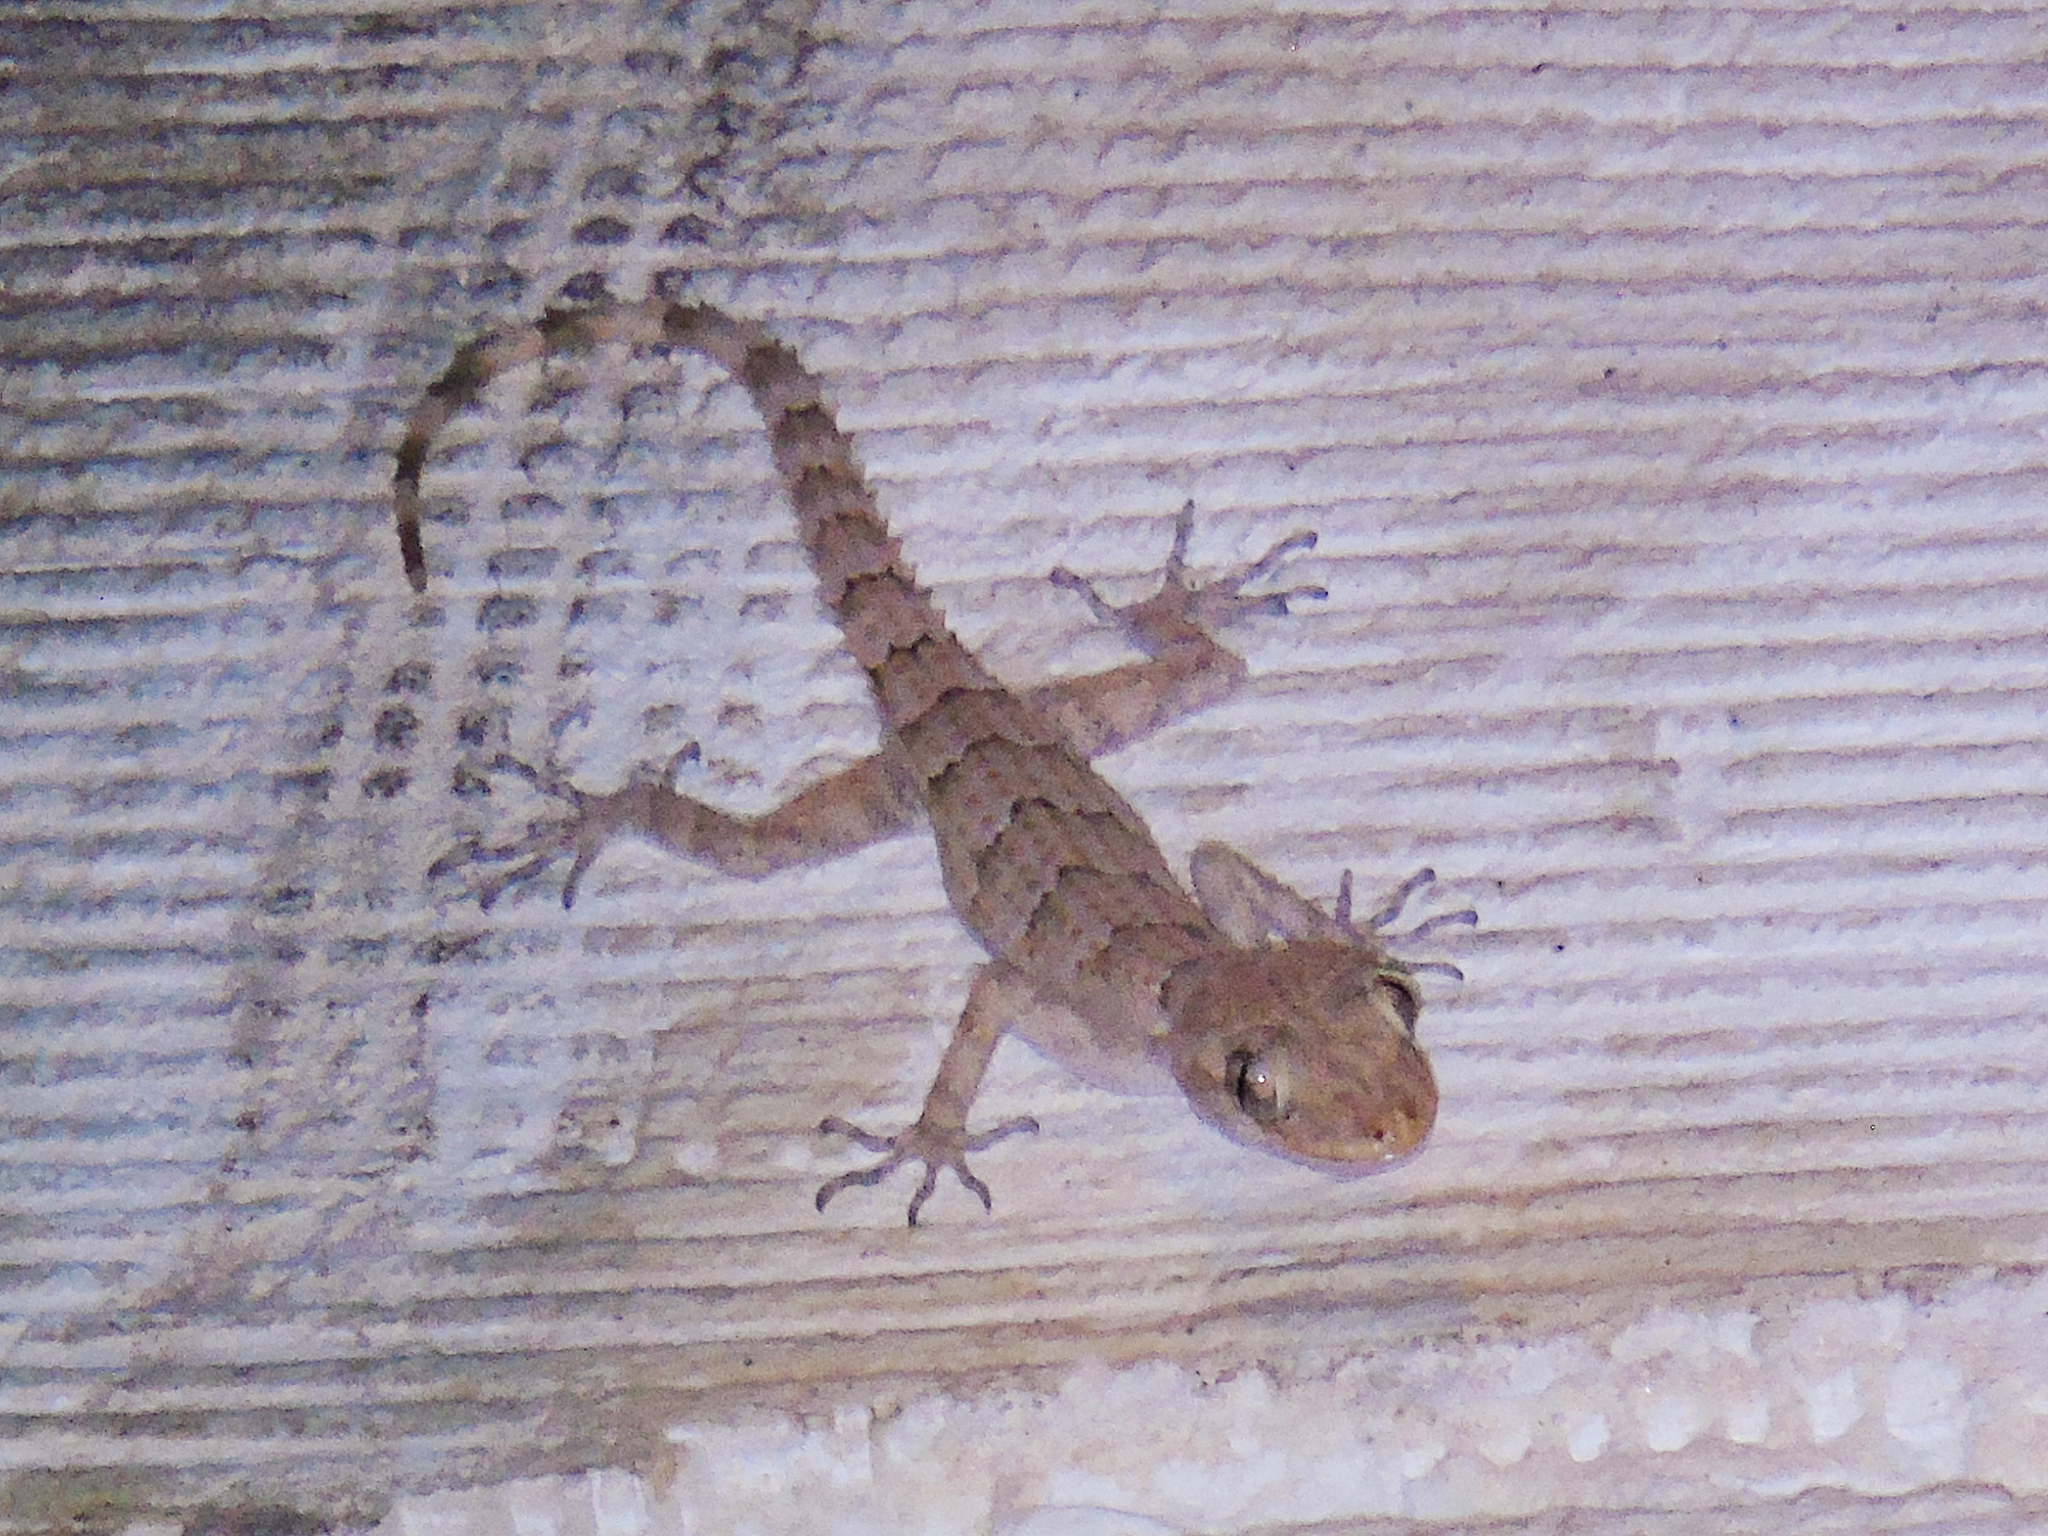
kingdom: Animalia
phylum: Chordata
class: Squamata
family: Gekkonidae
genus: Mediodactylus
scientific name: Mediodactylus orientalis
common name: Mediterranean thin-toed gecko
